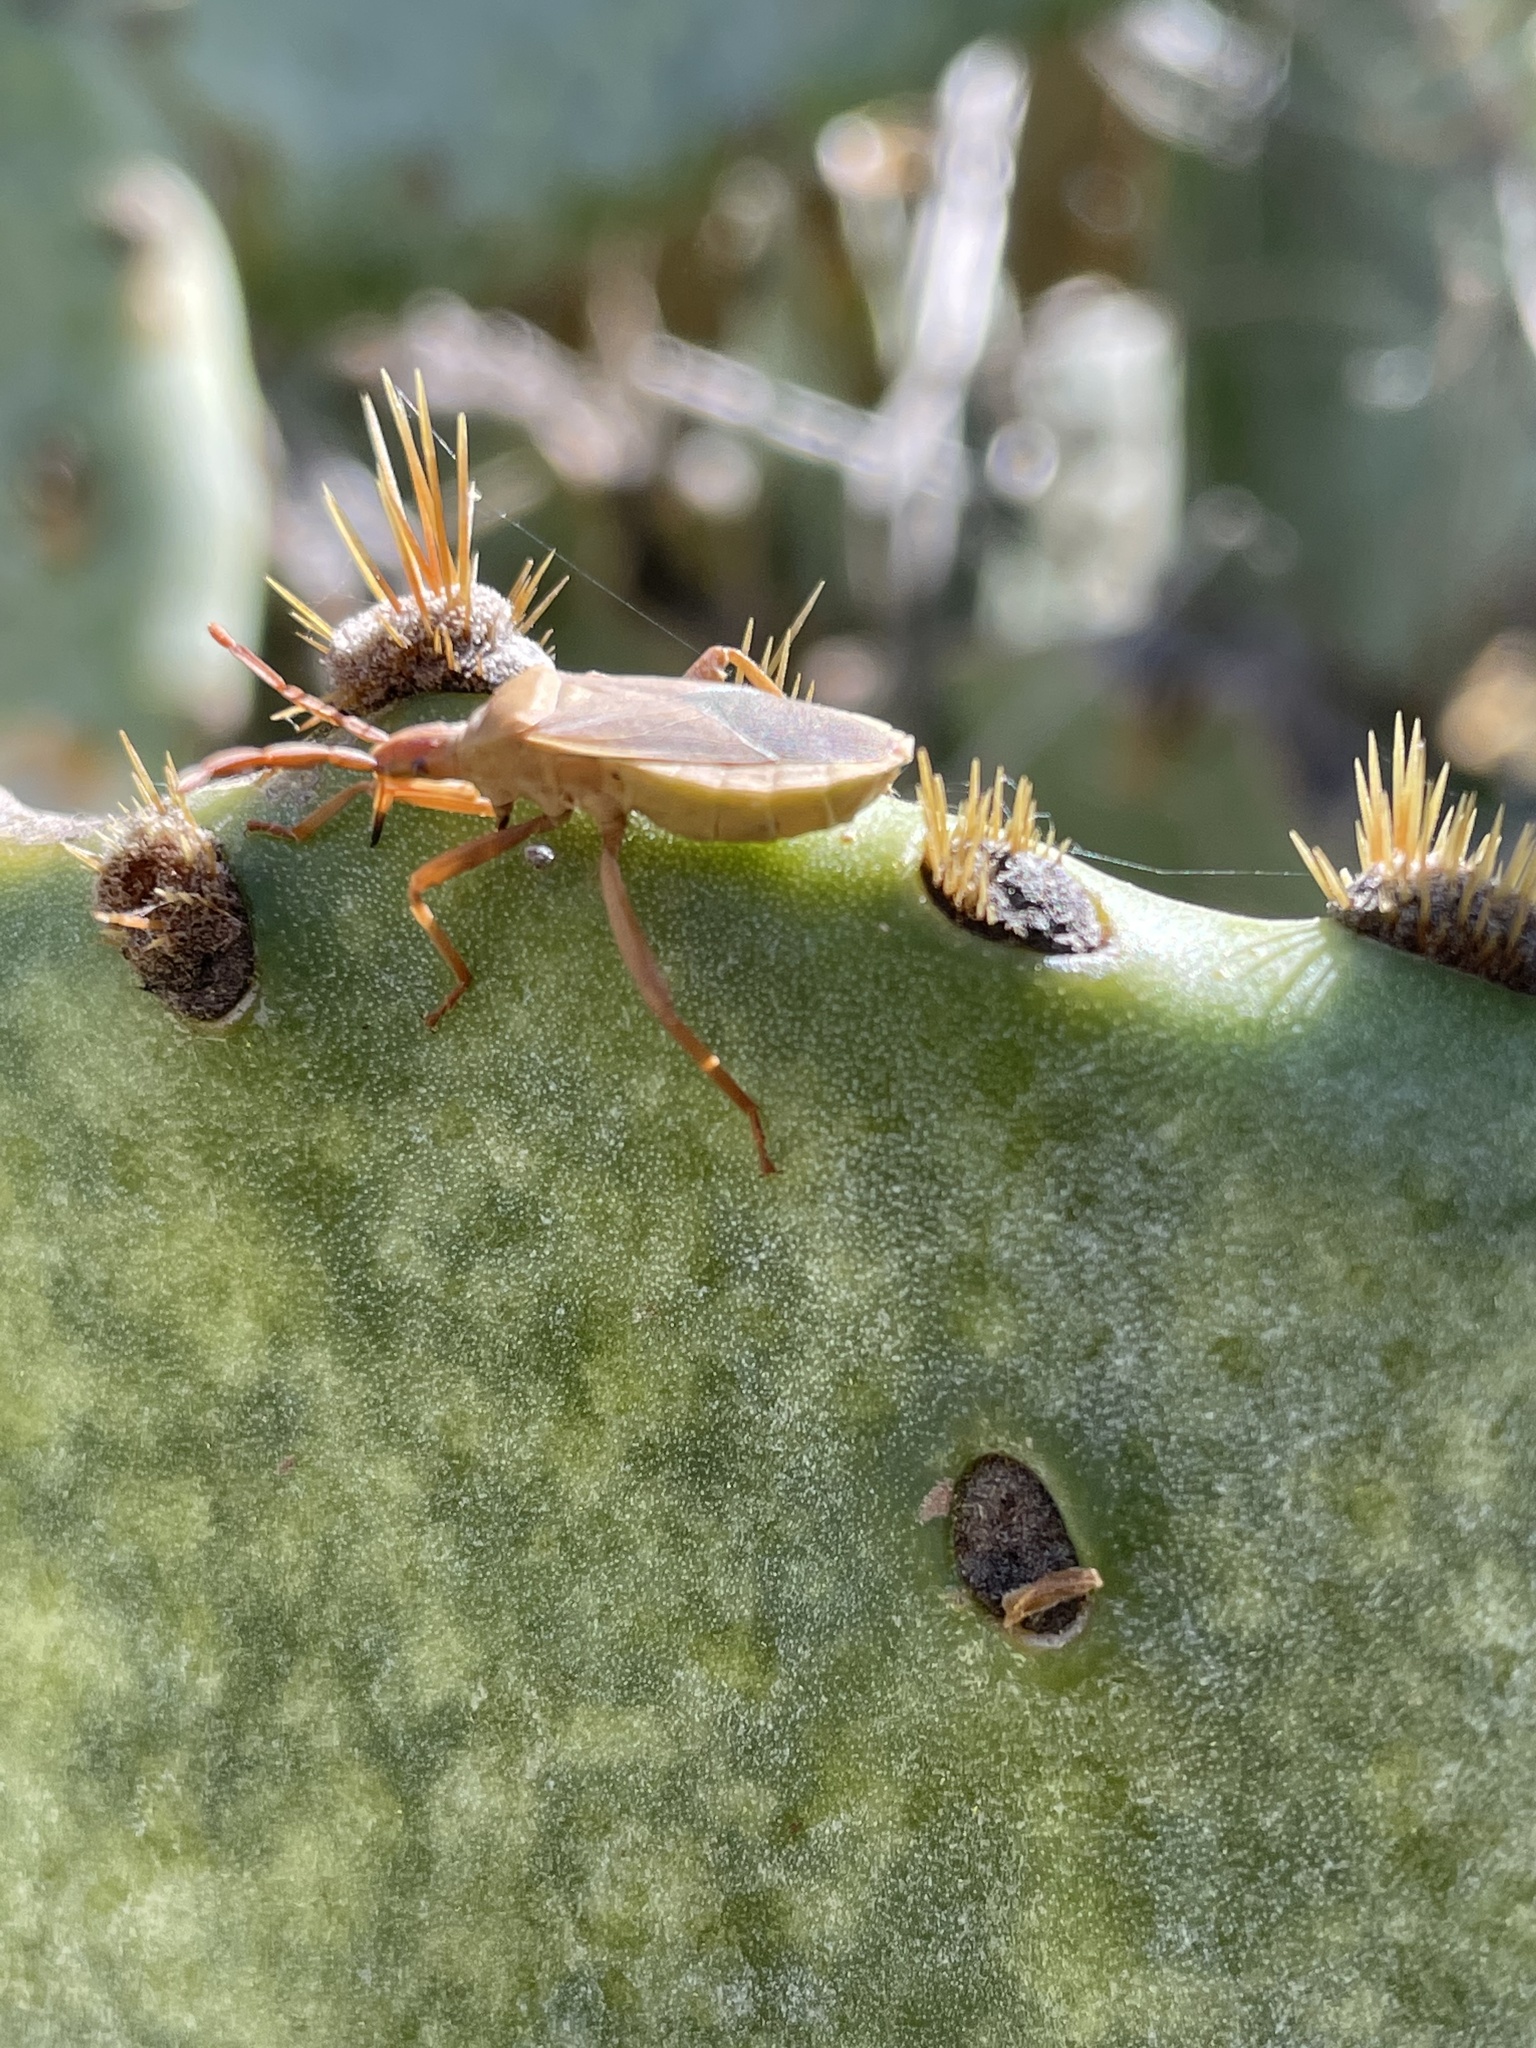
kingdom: Animalia
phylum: Arthropoda
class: Insecta
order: Hemiptera
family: Coreidae
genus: Chelinidea
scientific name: Chelinidea vittiger
